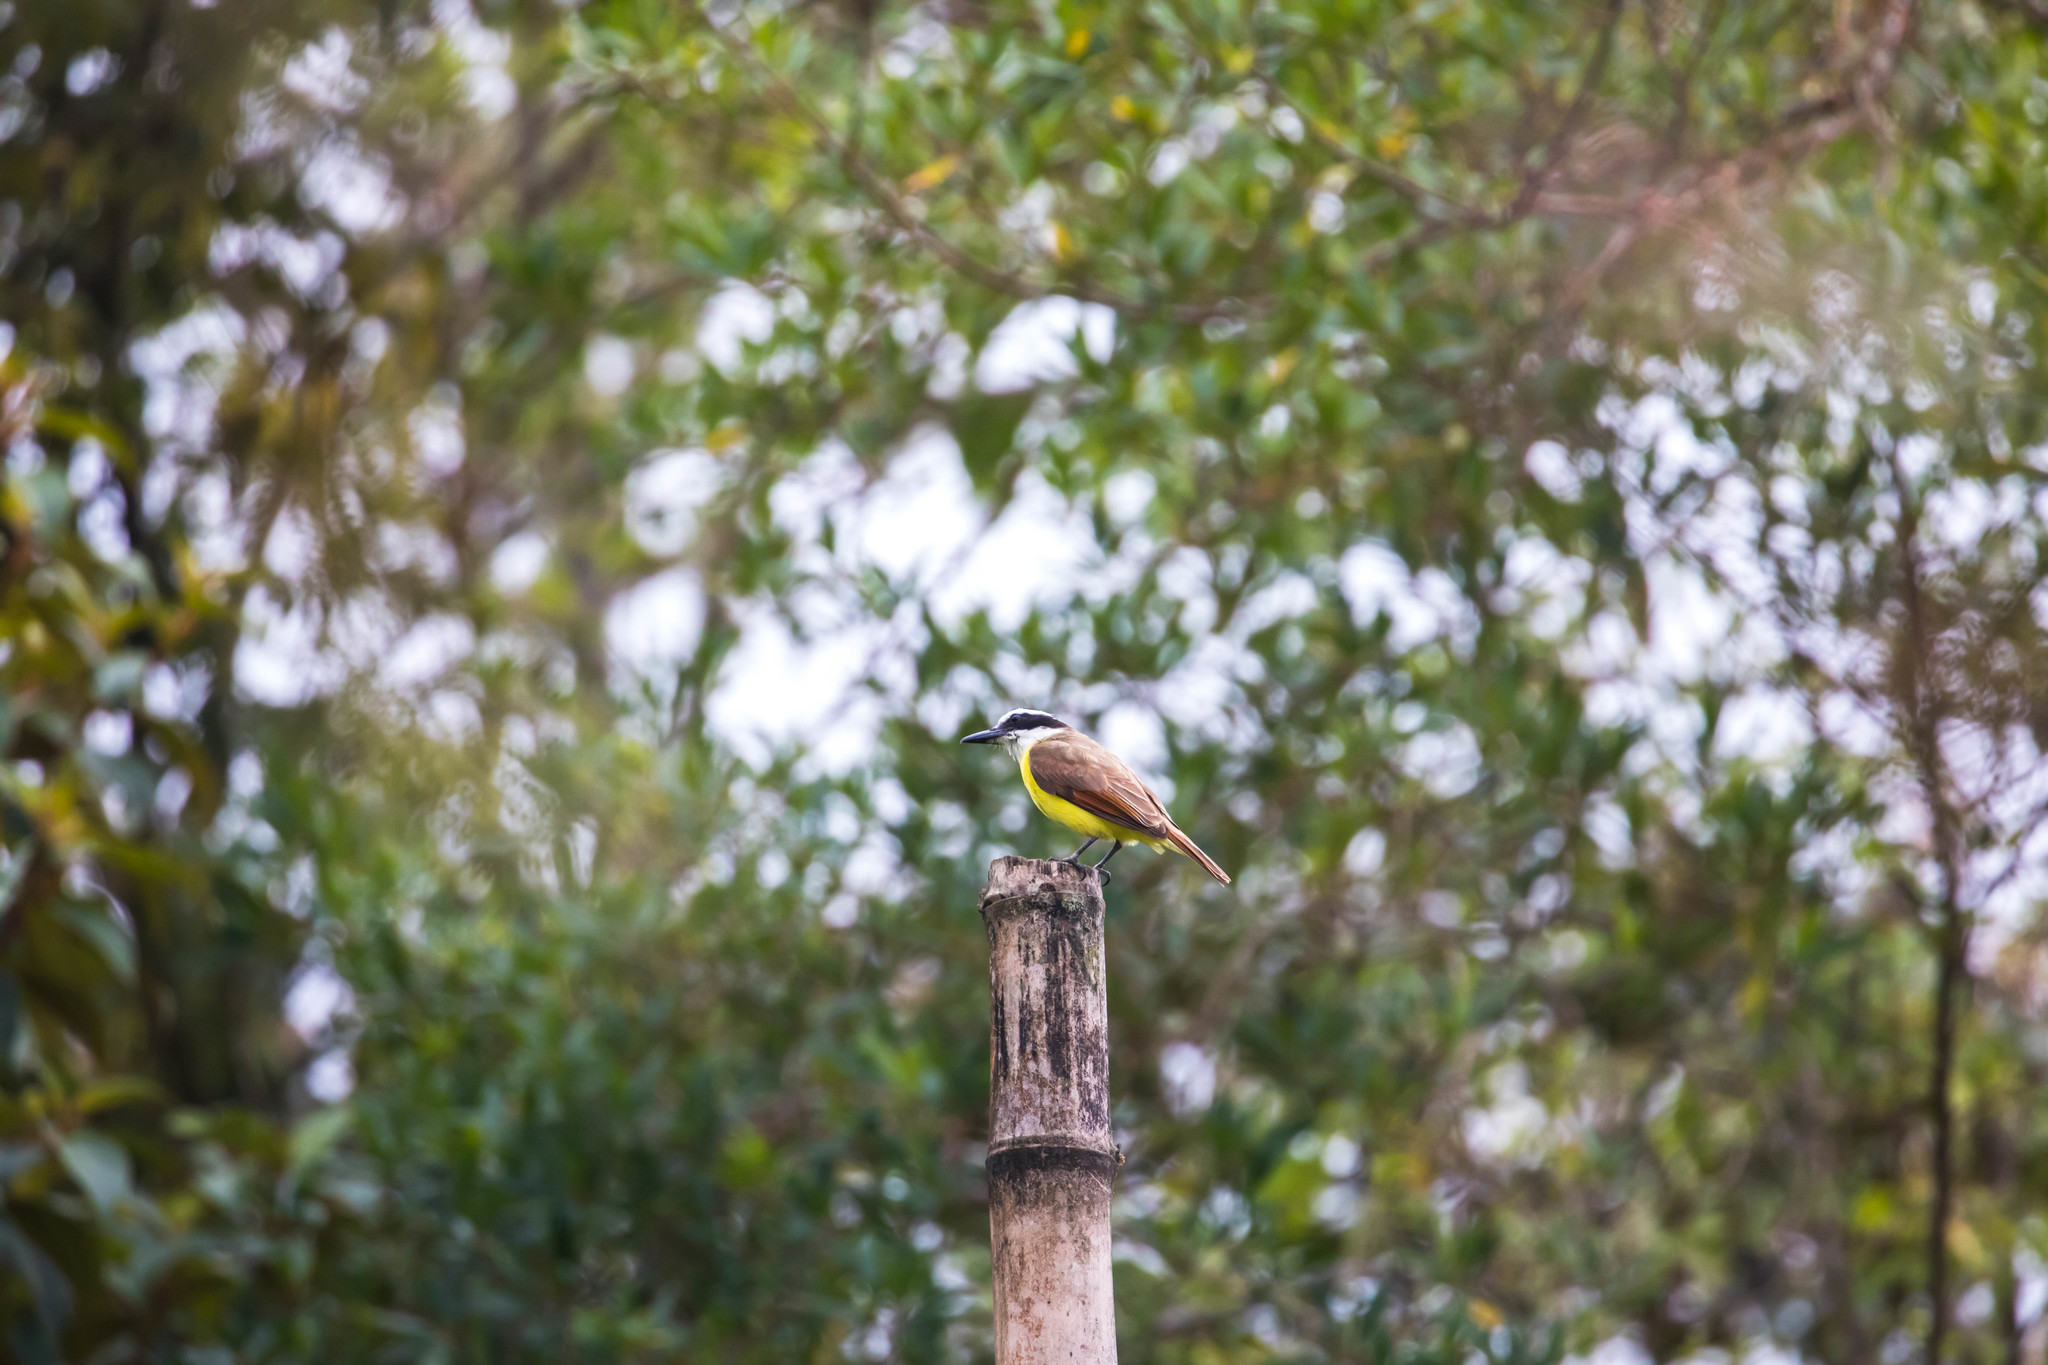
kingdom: Animalia
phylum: Chordata
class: Aves
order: Passeriformes
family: Tyrannidae
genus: Pitangus
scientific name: Pitangus sulphuratus
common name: Great kiskadee
